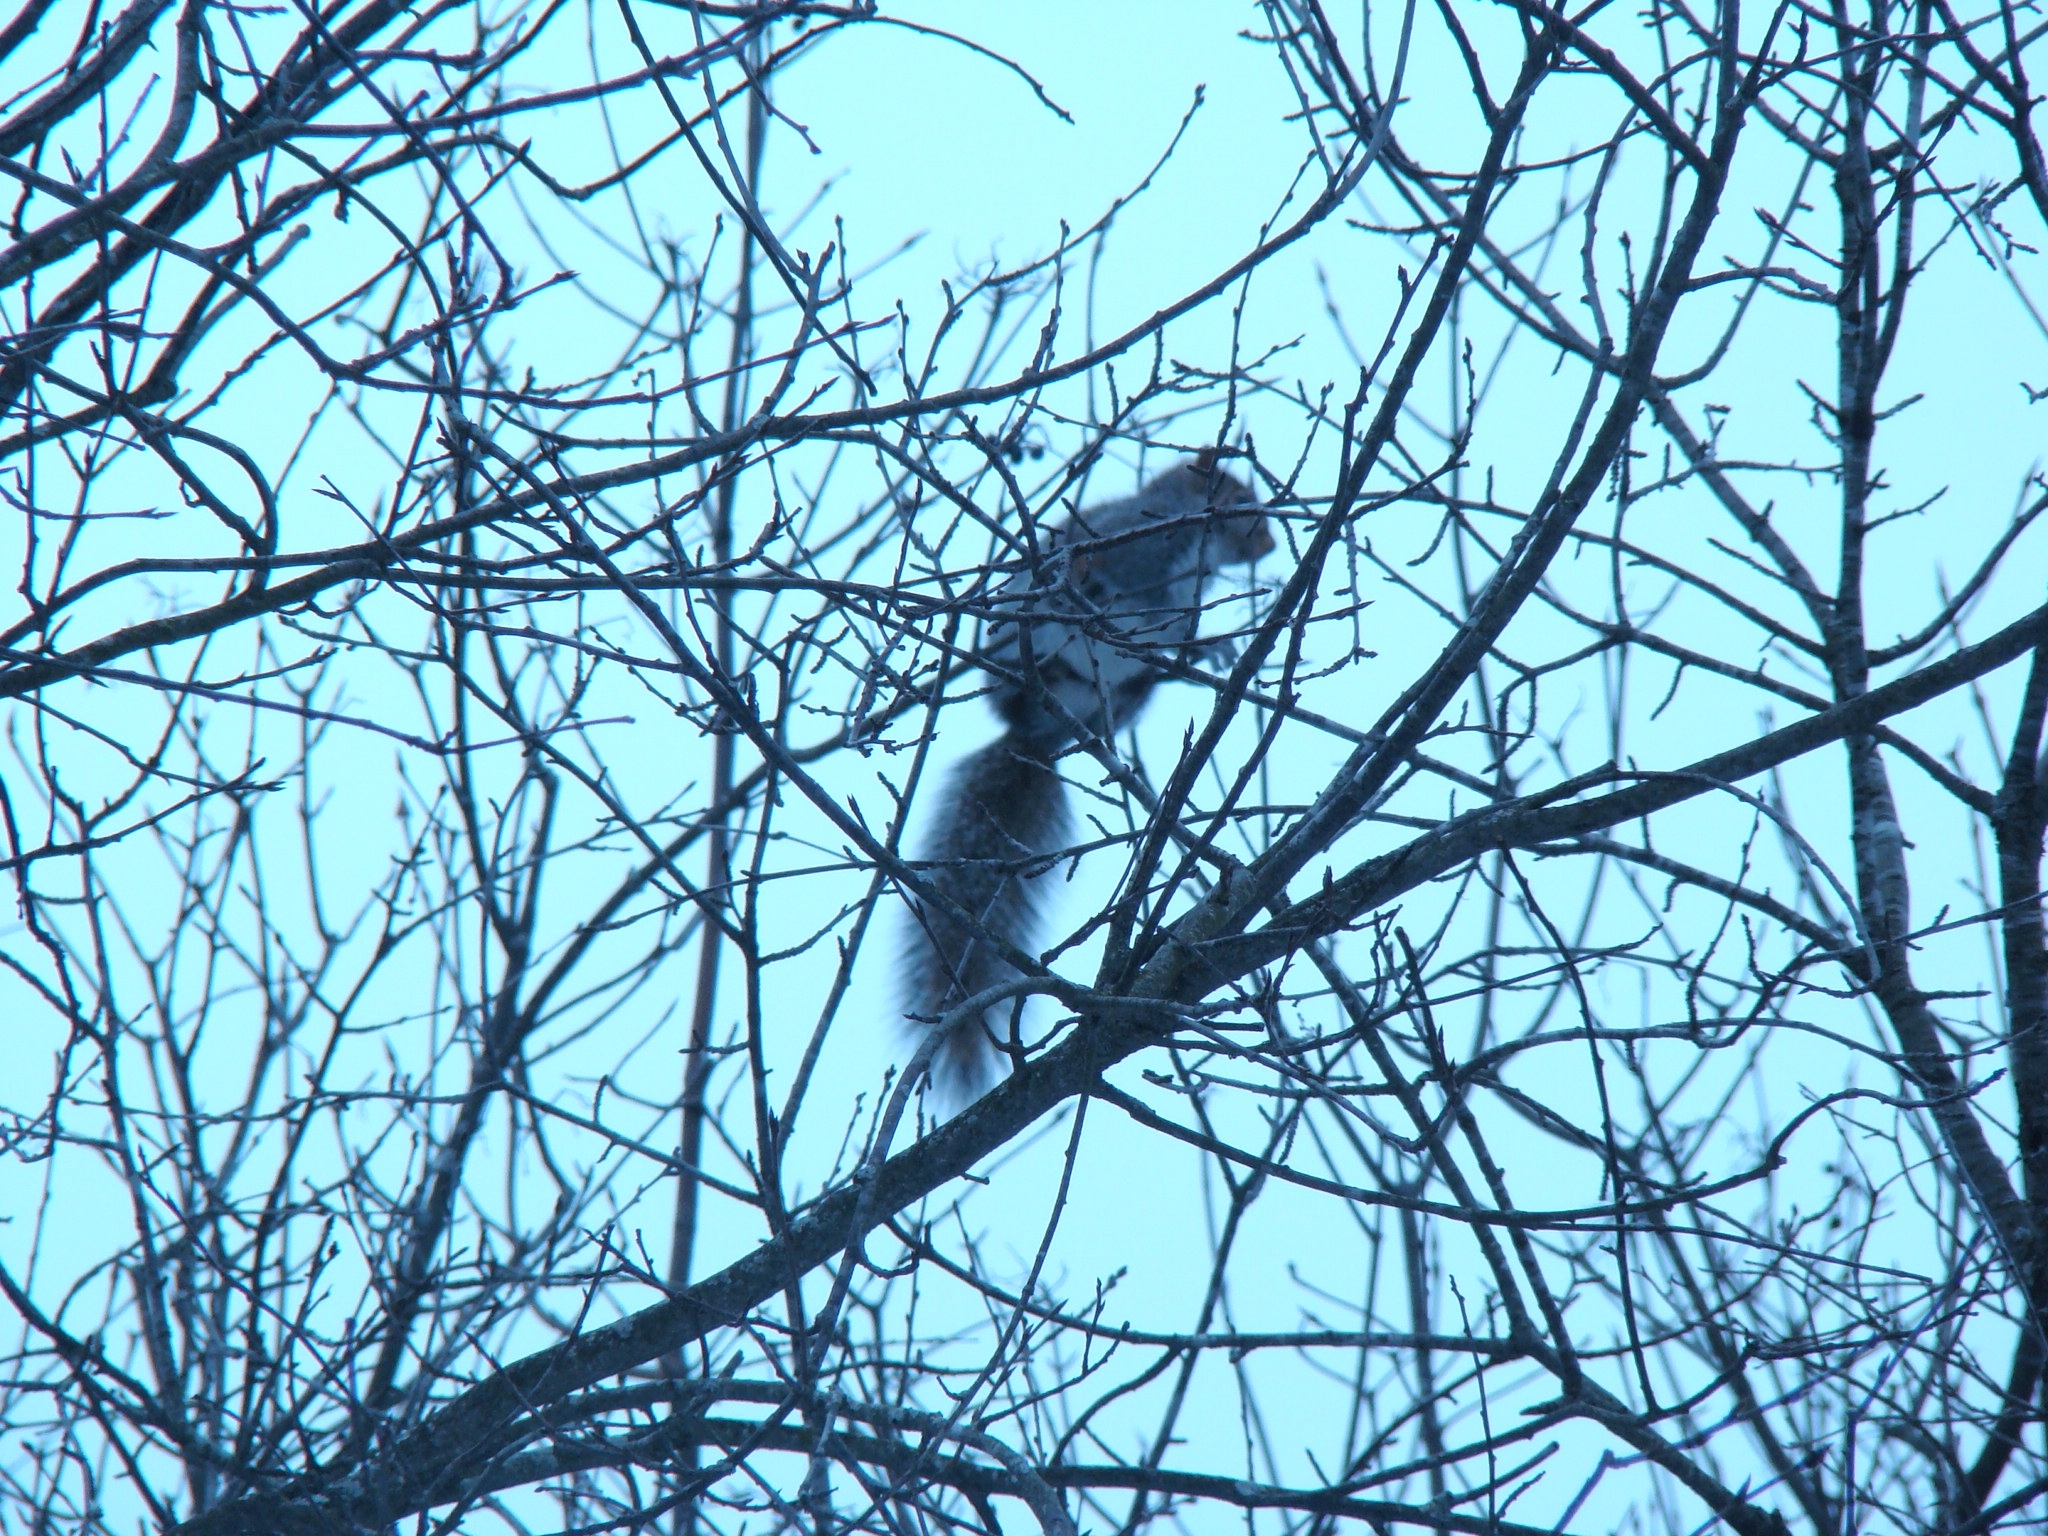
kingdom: Animalia
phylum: Chordata
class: Mammalia
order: Rodentia
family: Sciuridae
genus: Sciurus
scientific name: Sciurus carolinensis
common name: Eastern gray squirrel
